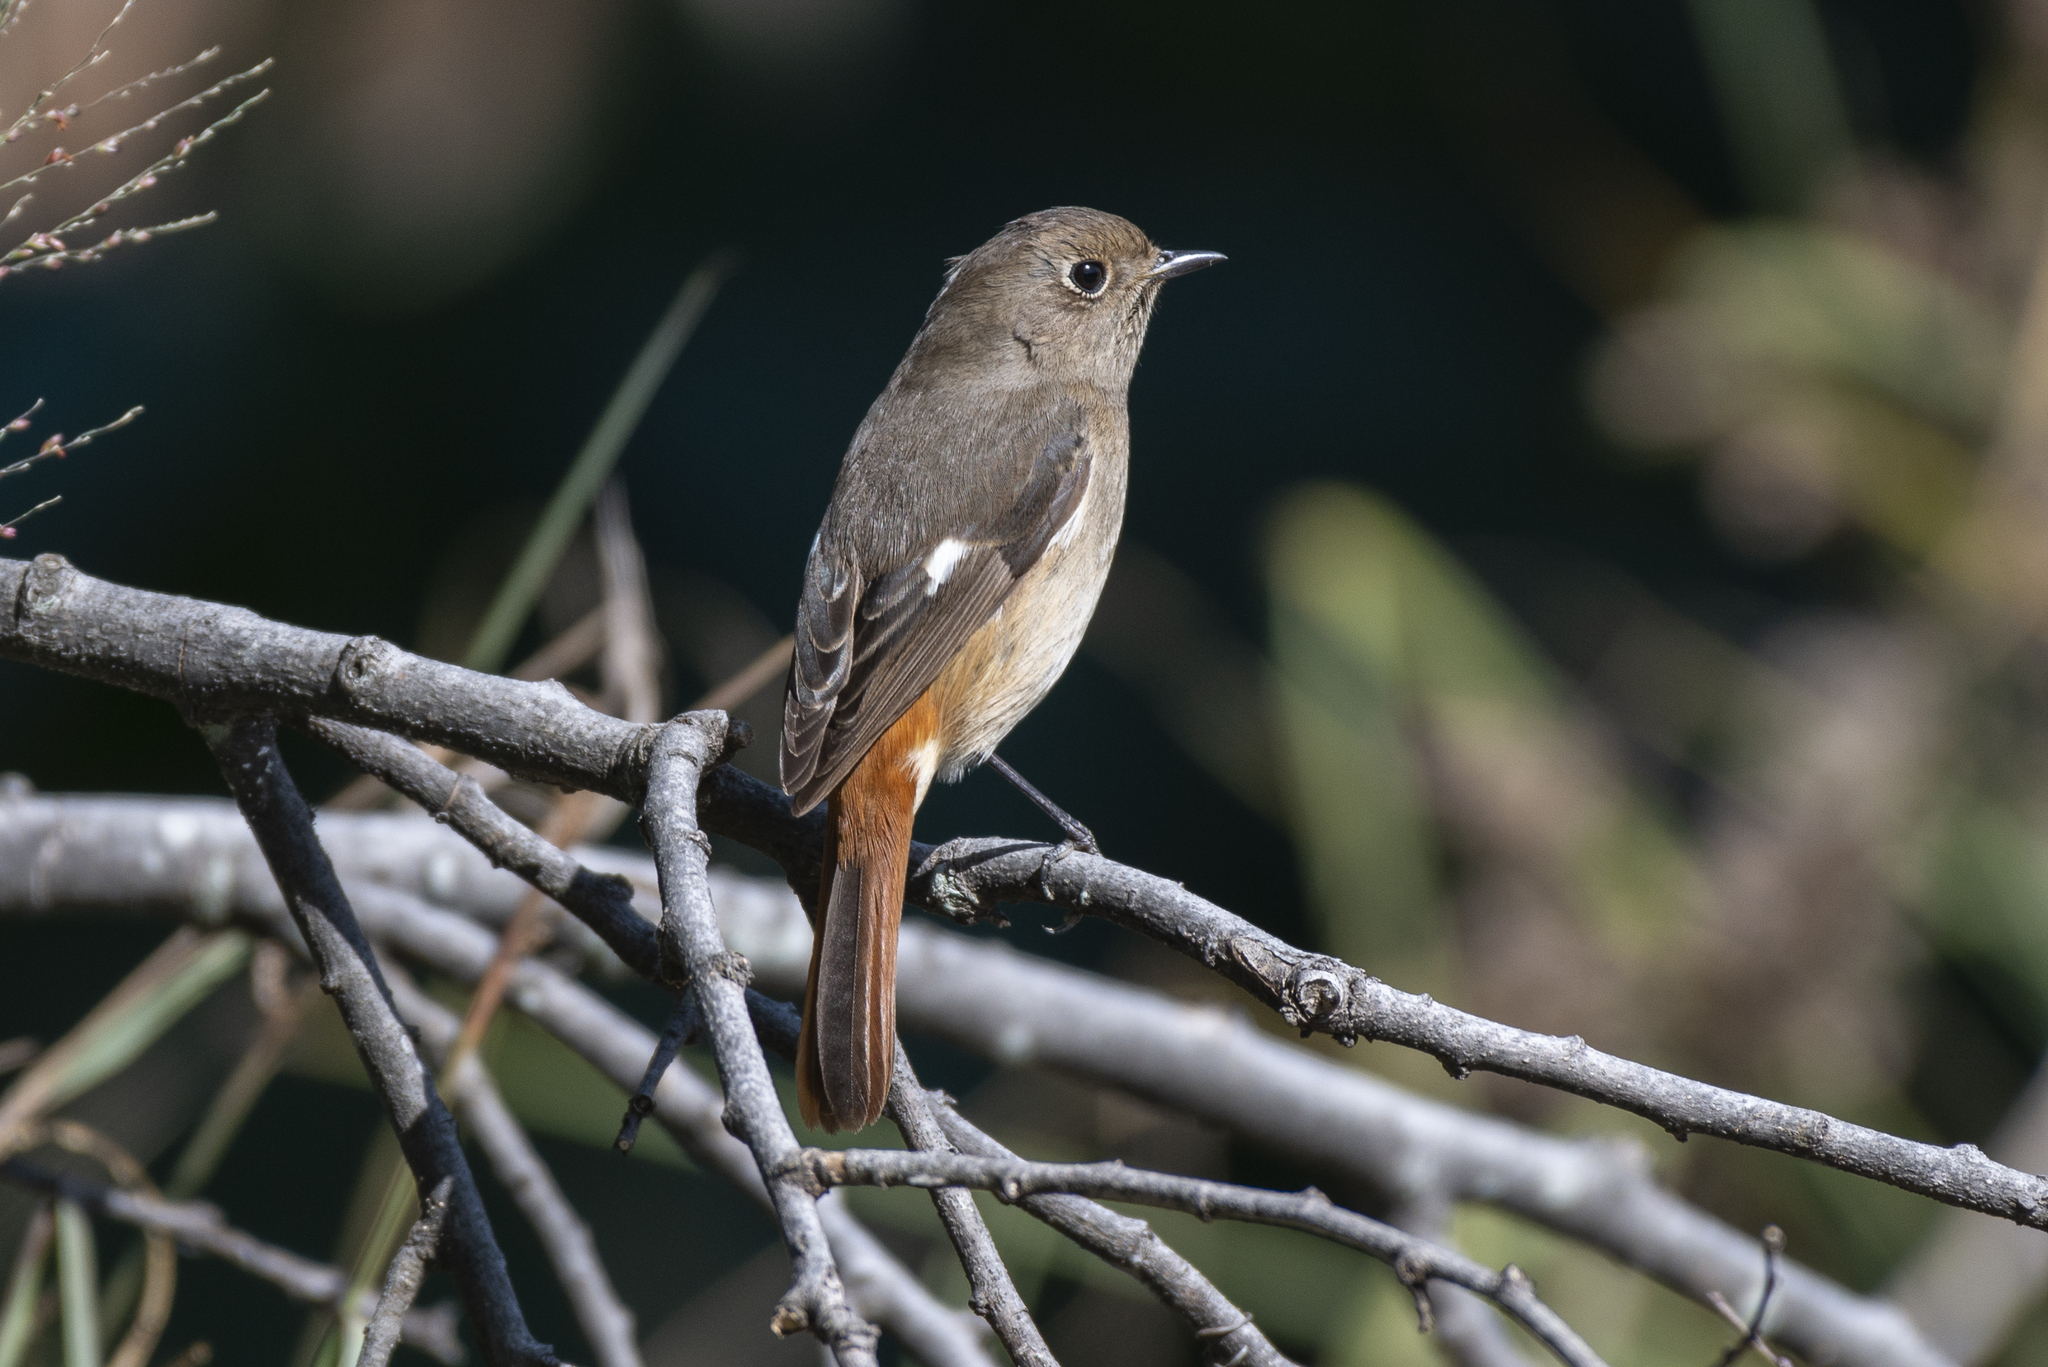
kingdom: Animalia
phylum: Chordata
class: Aves
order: Passeriformes
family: Muscicapidae
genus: Phoenicurus
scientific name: Phoenicurus auroreus
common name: Daurian redstart
